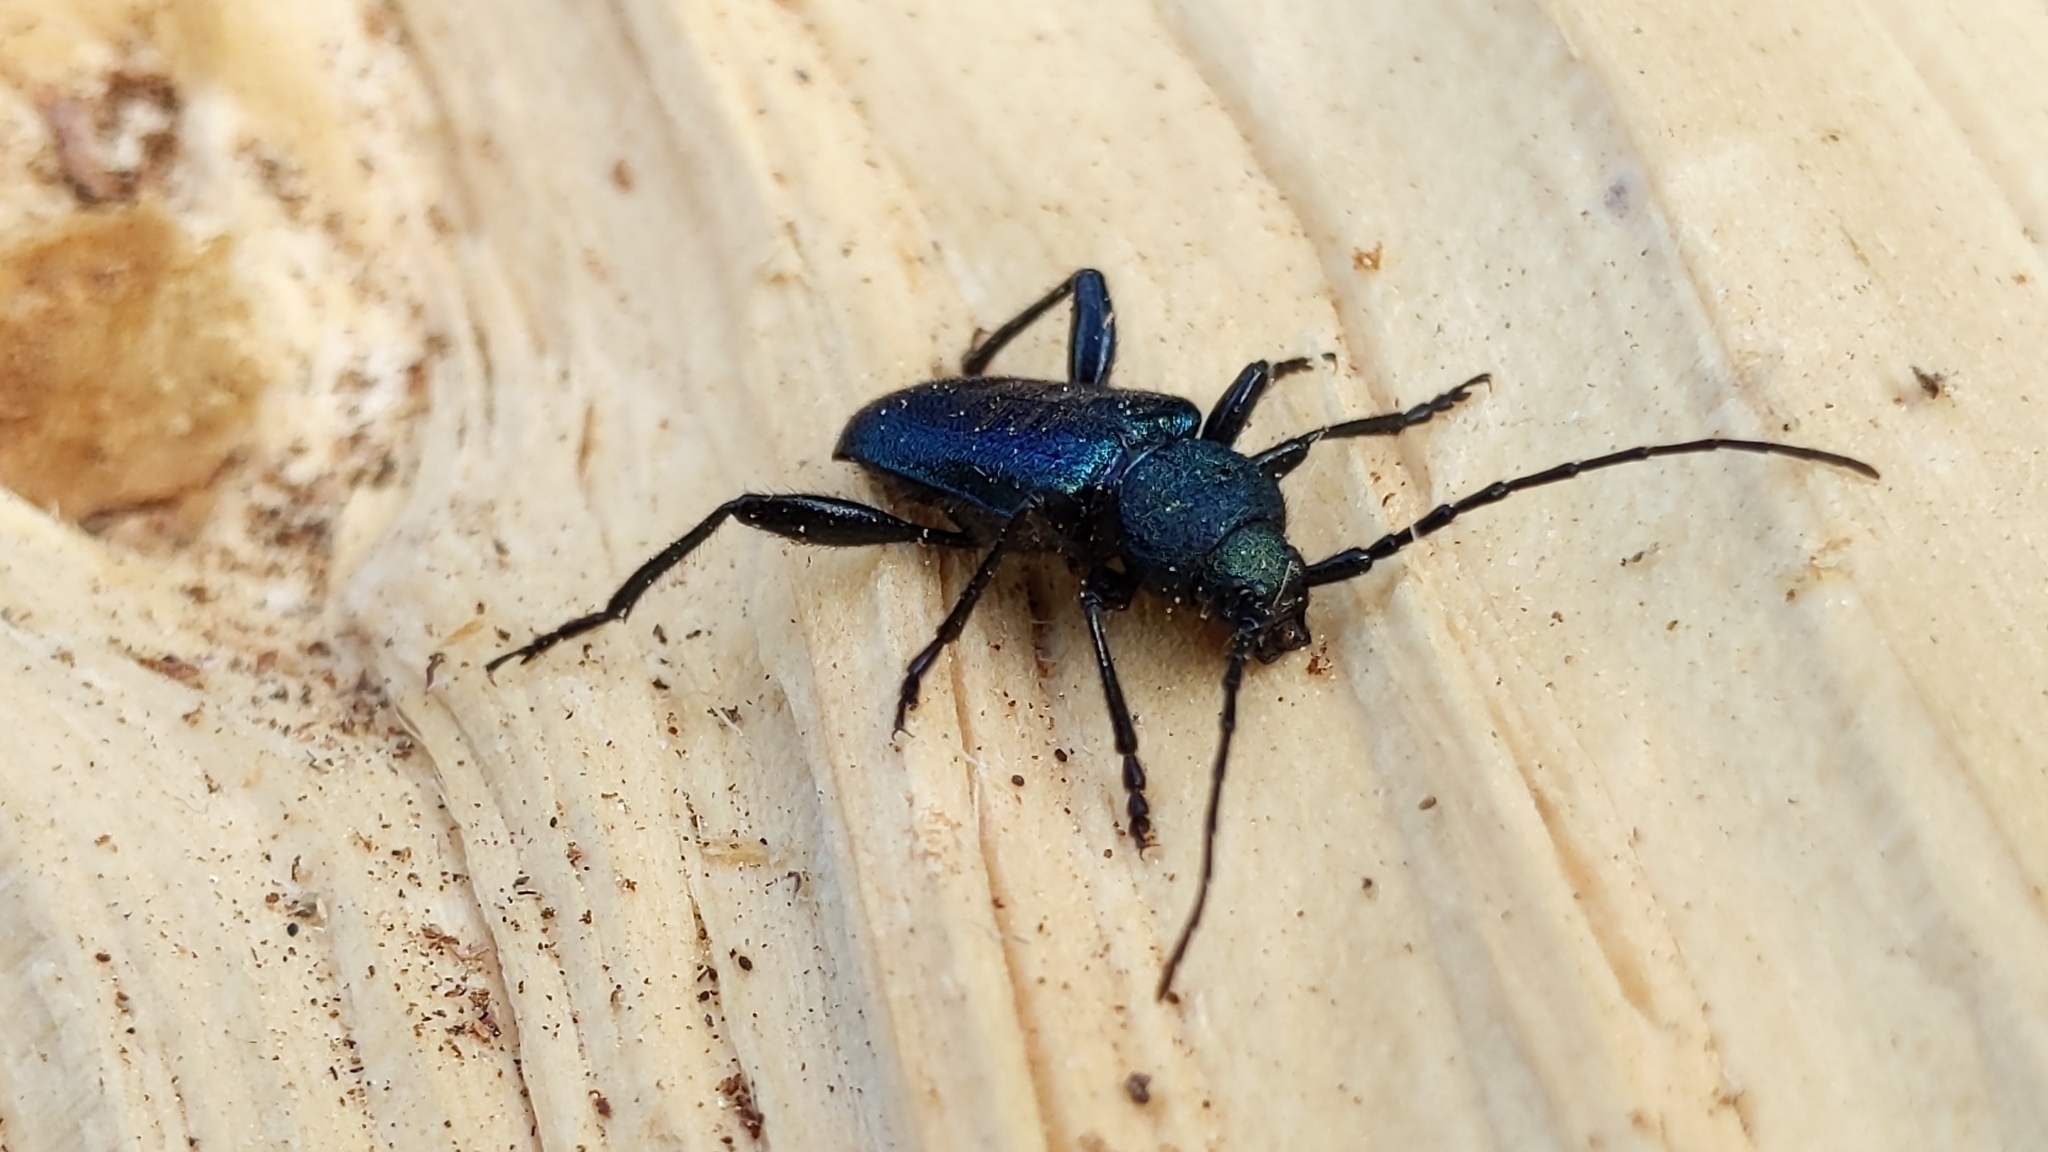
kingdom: Animalia
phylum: Arthropoda
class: Insecta
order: Coleoptera
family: Cerambycidae
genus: Callidium
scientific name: Callidium violaceum
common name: Violet tanbark beetle
